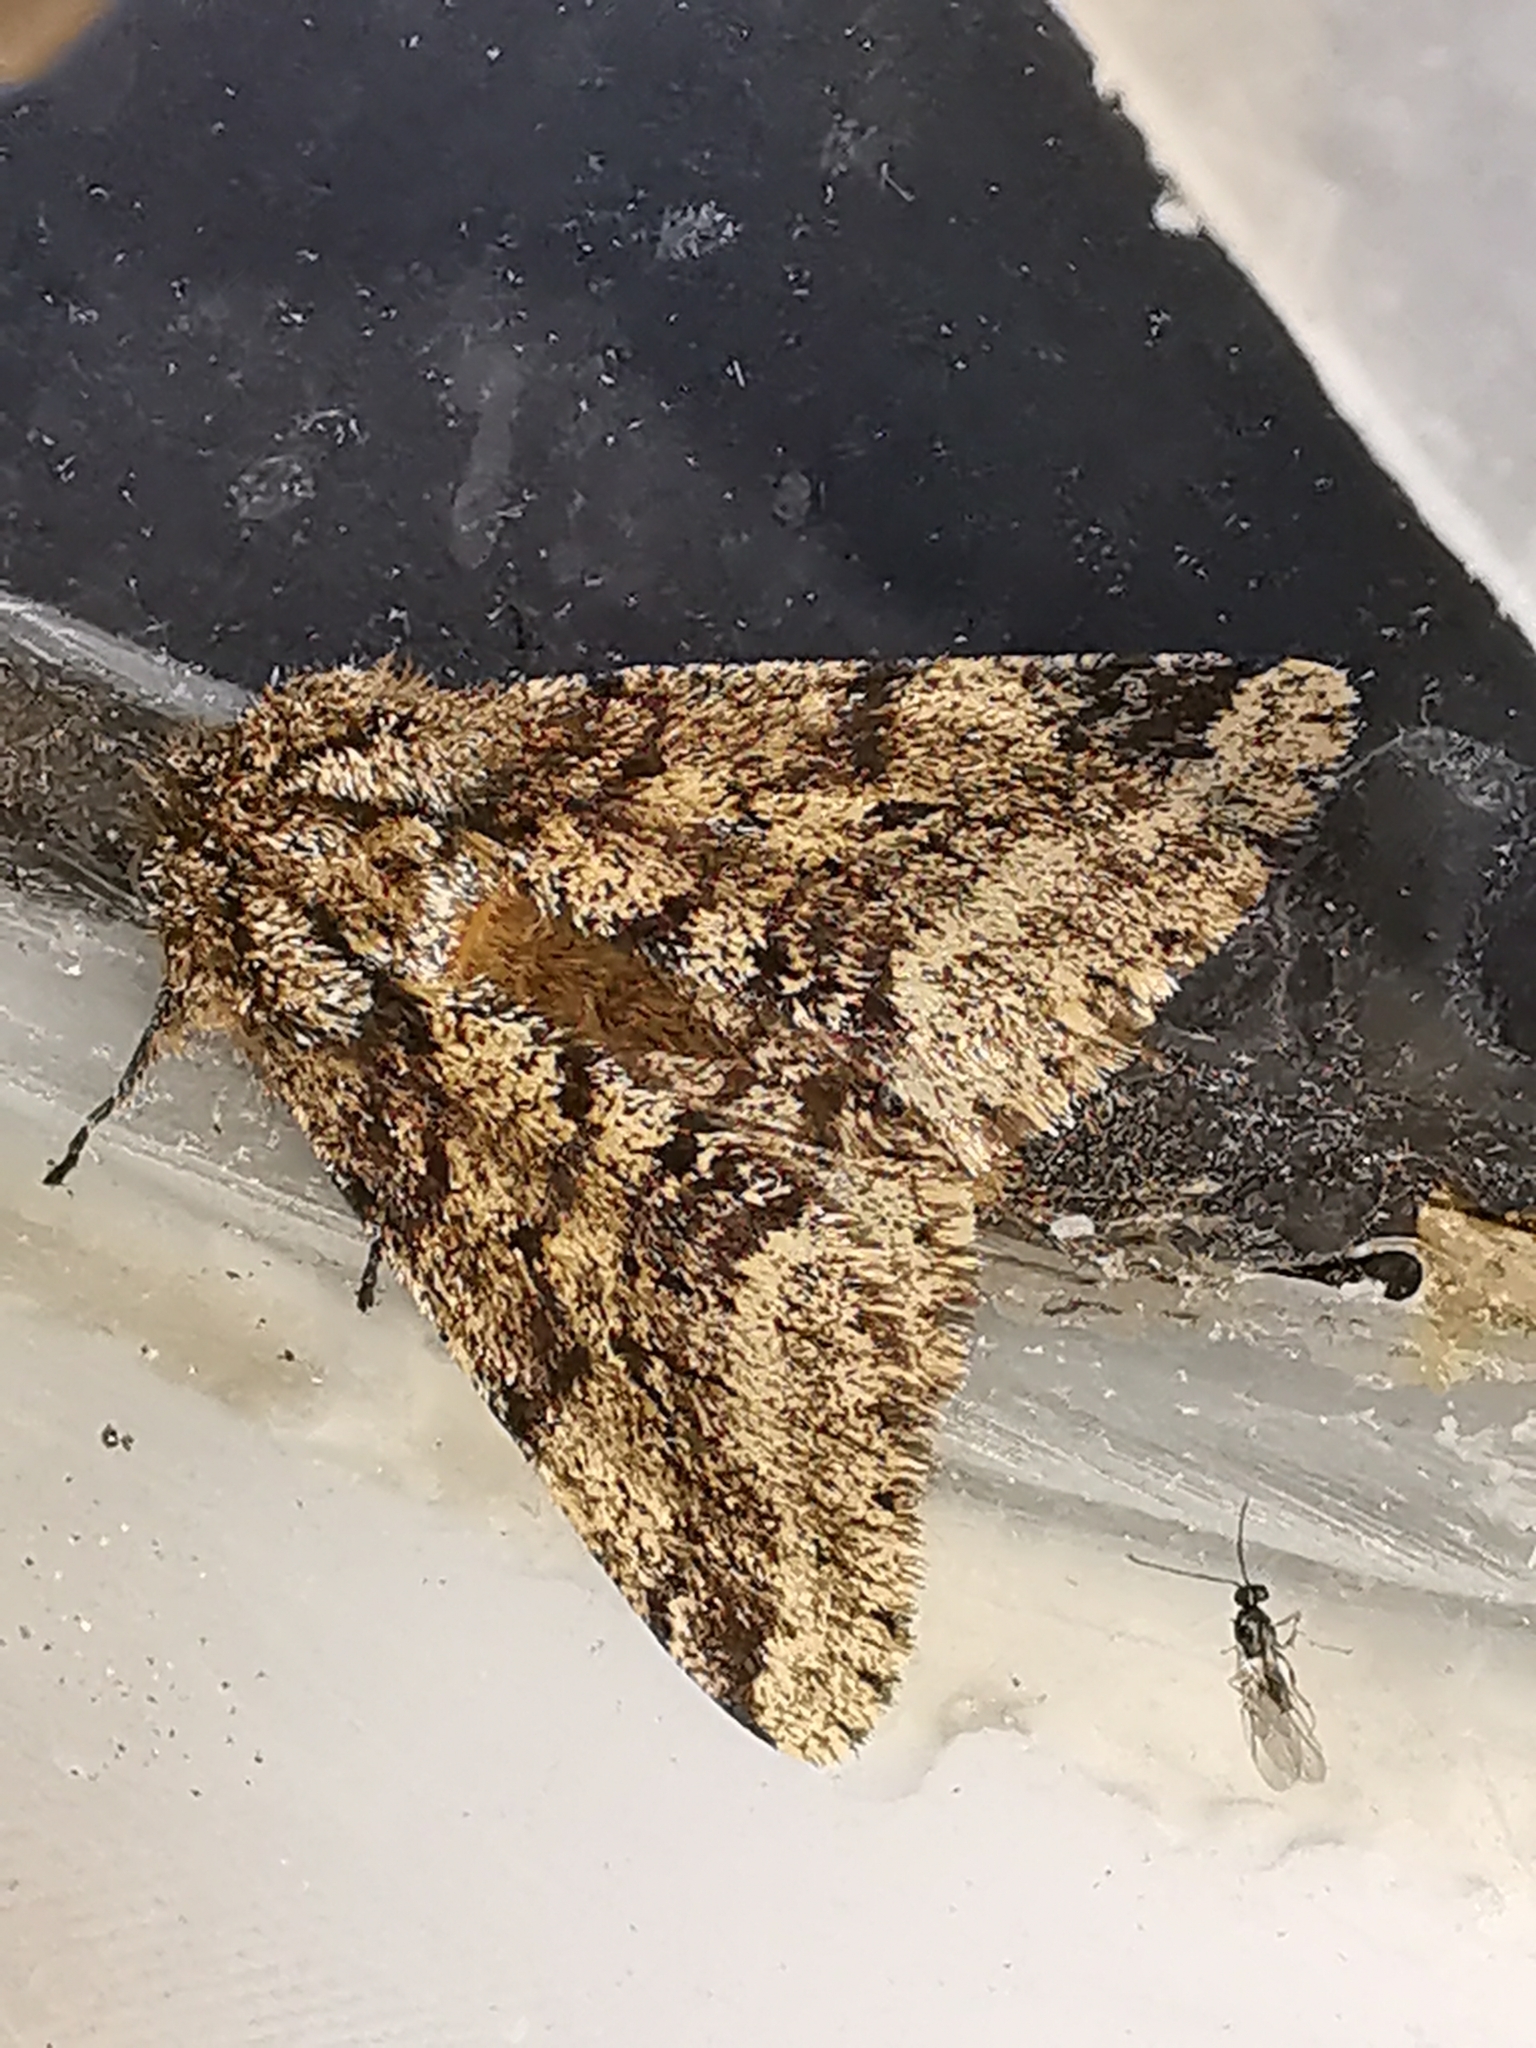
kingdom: Animalia
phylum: Arthropoda
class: Insecta
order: Lepidoptera
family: Geometridae
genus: Lycia
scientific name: Lycia hirtaria
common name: Brindled beauty
